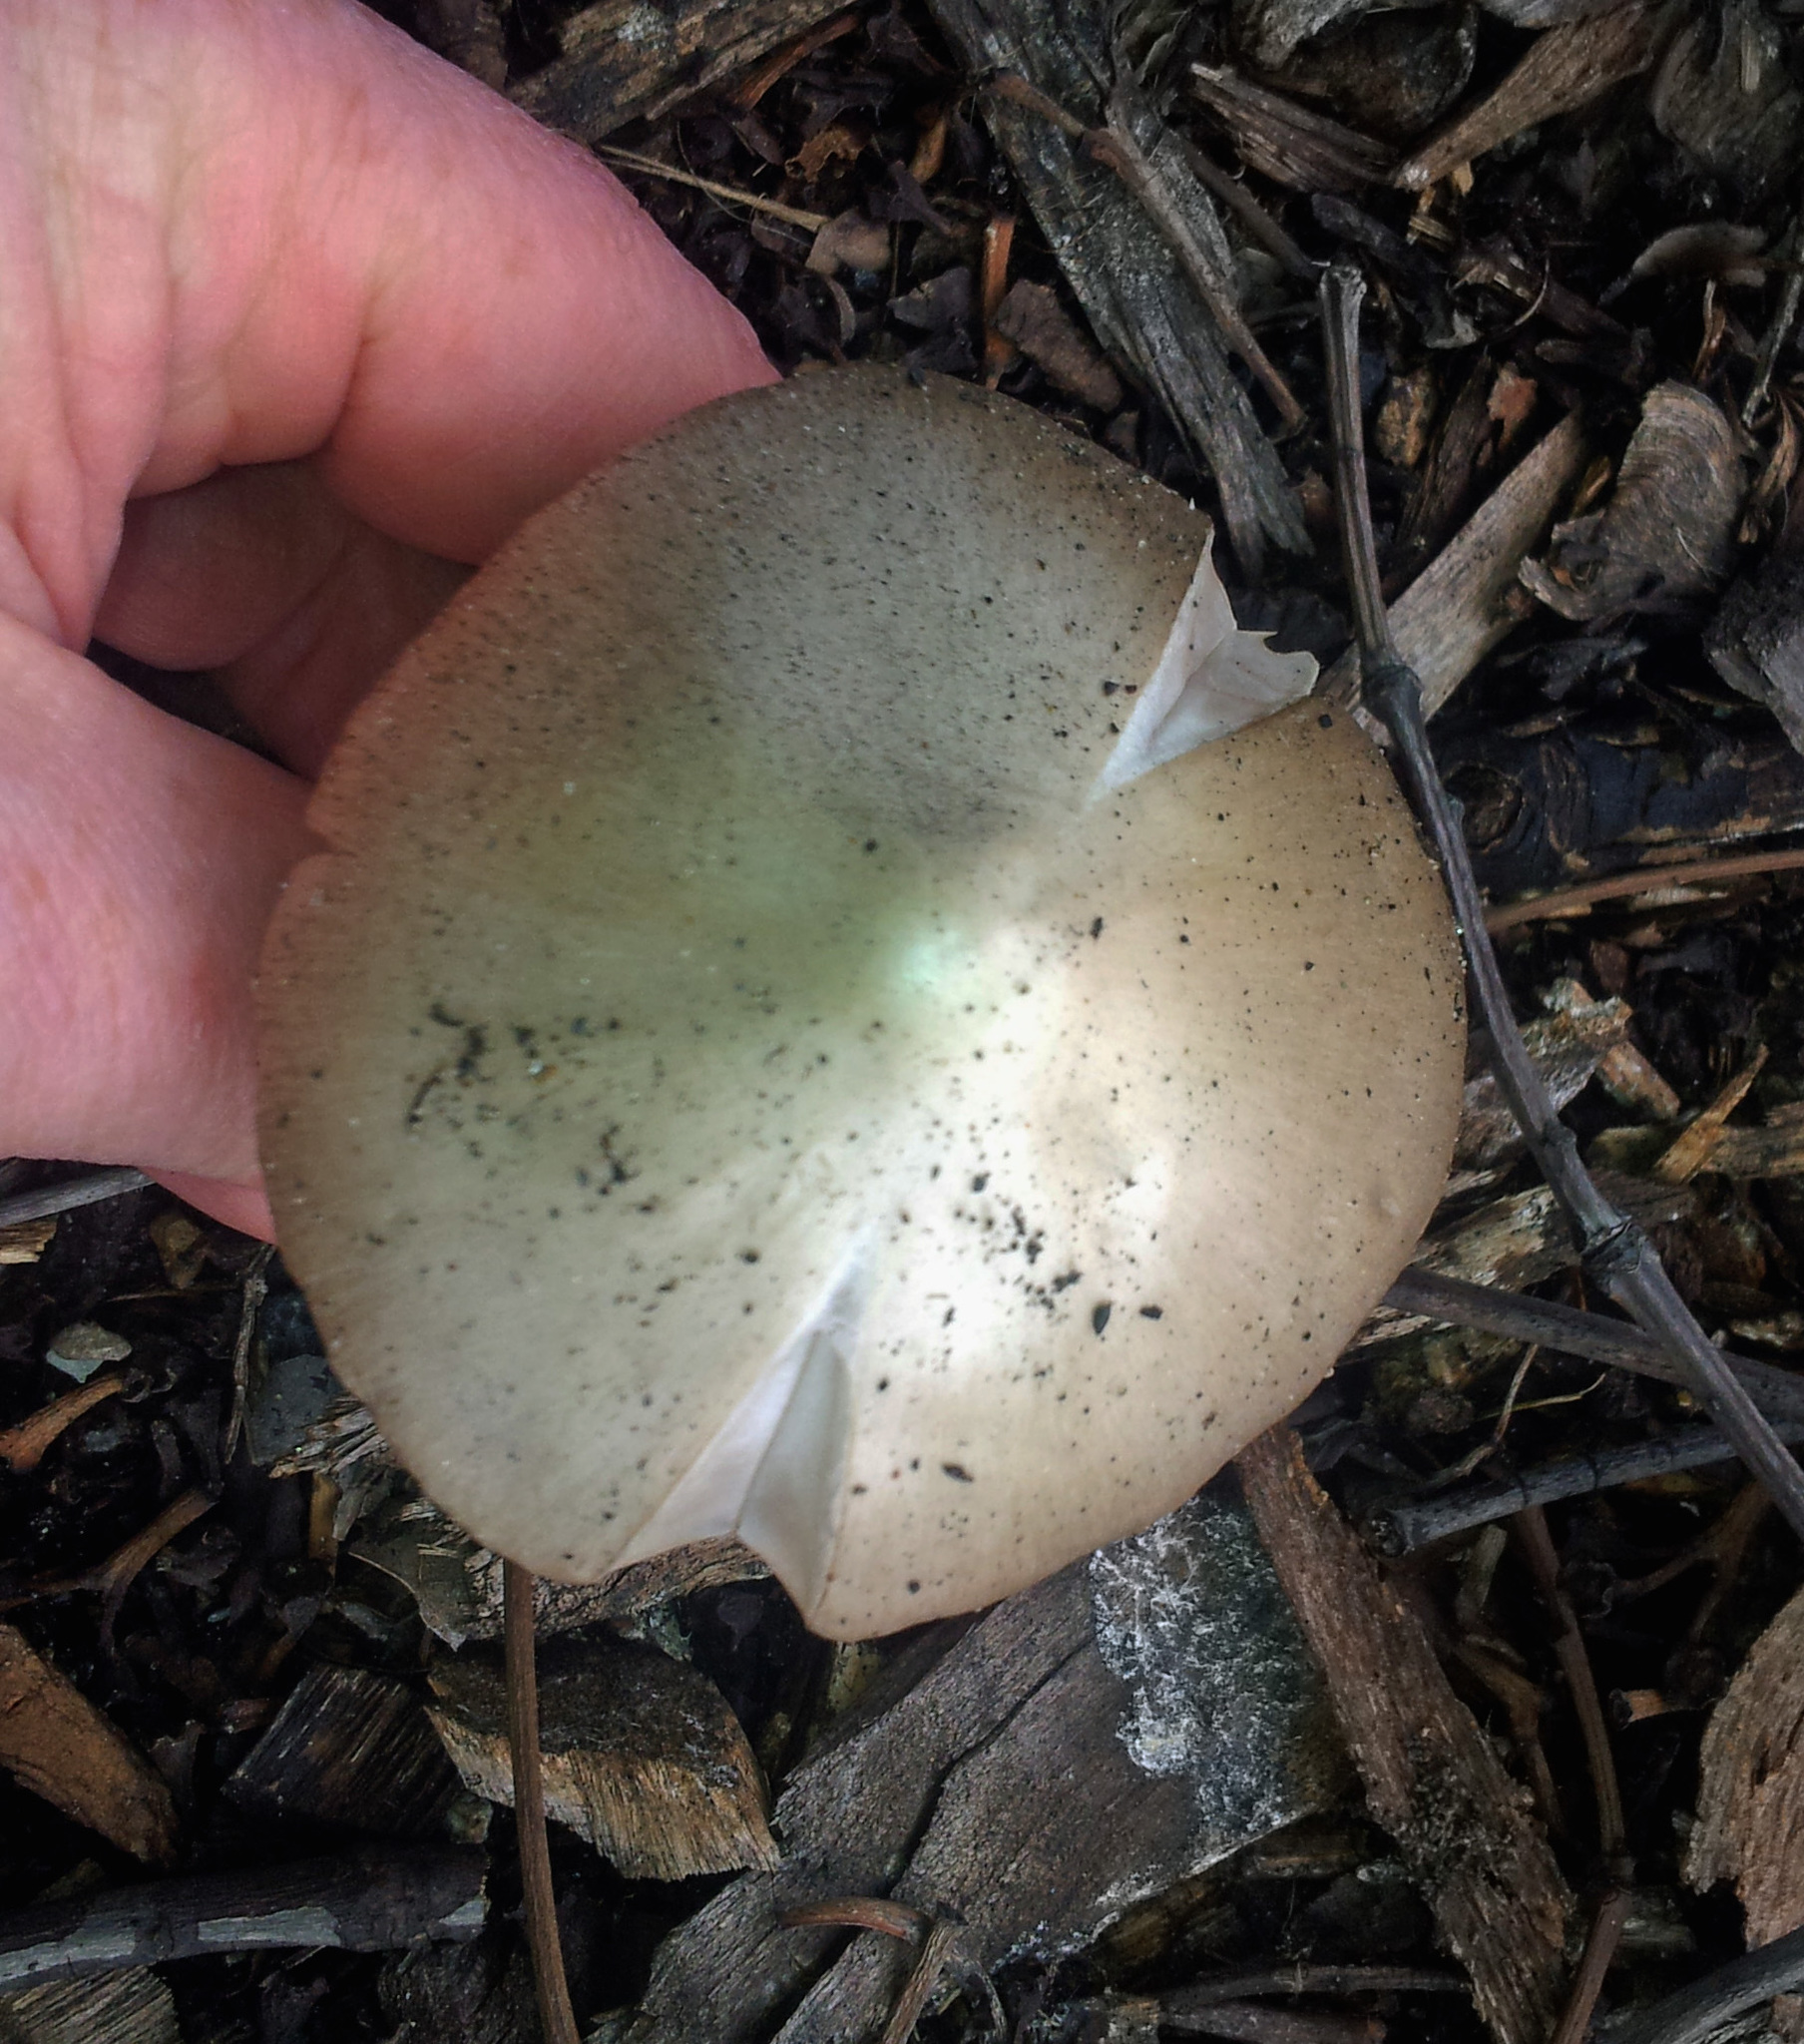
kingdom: Fungi
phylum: Basidiomycota
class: Agaricomycetes
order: Agaricales
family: Pluteaceae
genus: Volvopluteus
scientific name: Volvopluteus gloiocephalus
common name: Stubble rosegill
